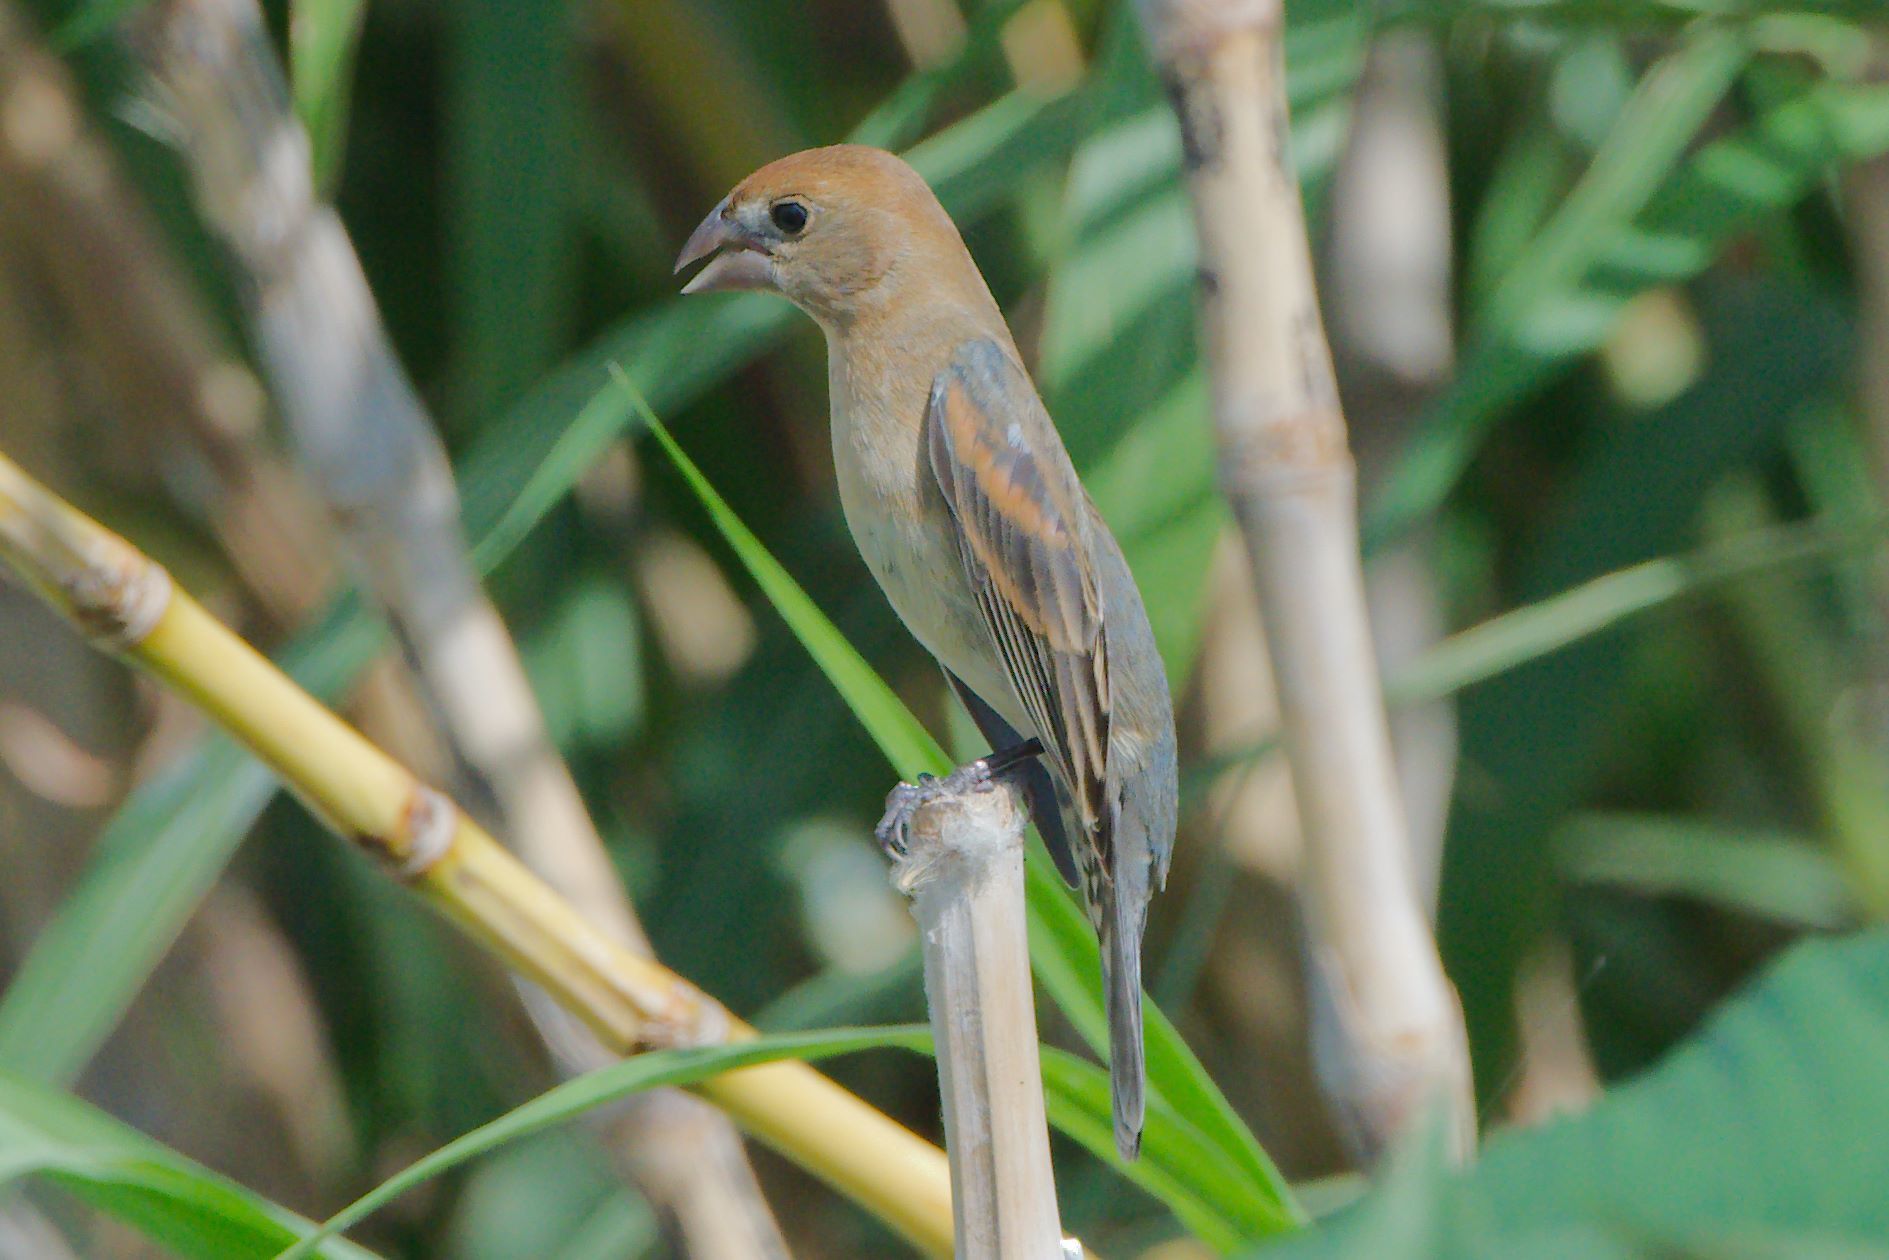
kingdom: Animalia
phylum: Chordata
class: Aves
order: Passeriformes
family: Cardinalidae
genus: Passerina
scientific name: Passerina caerulea
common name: Blue grosbeak
